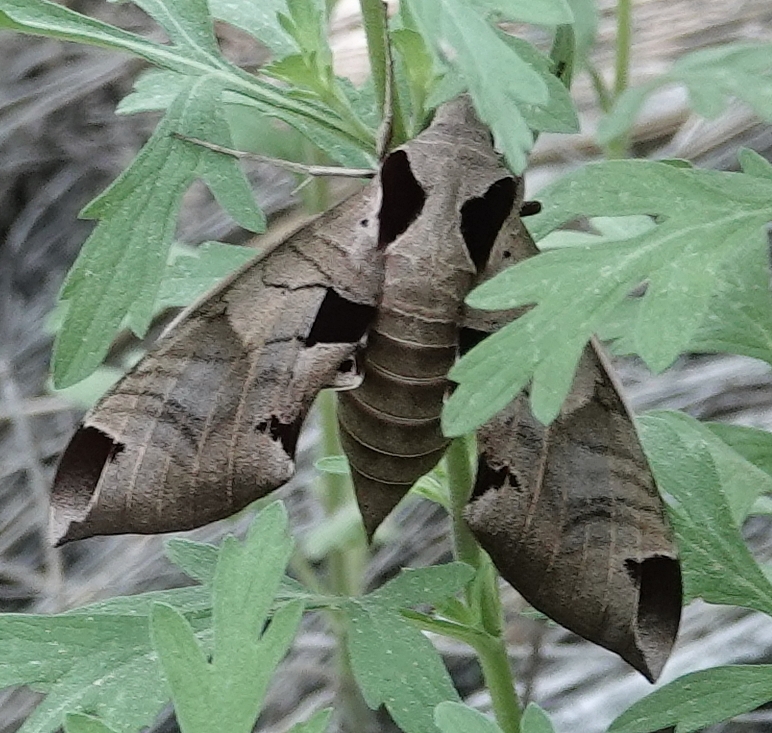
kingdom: Animalia
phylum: Arthropoda
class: Insecta
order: Lepidoptera
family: Sphingidae
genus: Eumorpha
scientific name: Eumorpha achemon
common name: Achemon sphinx
